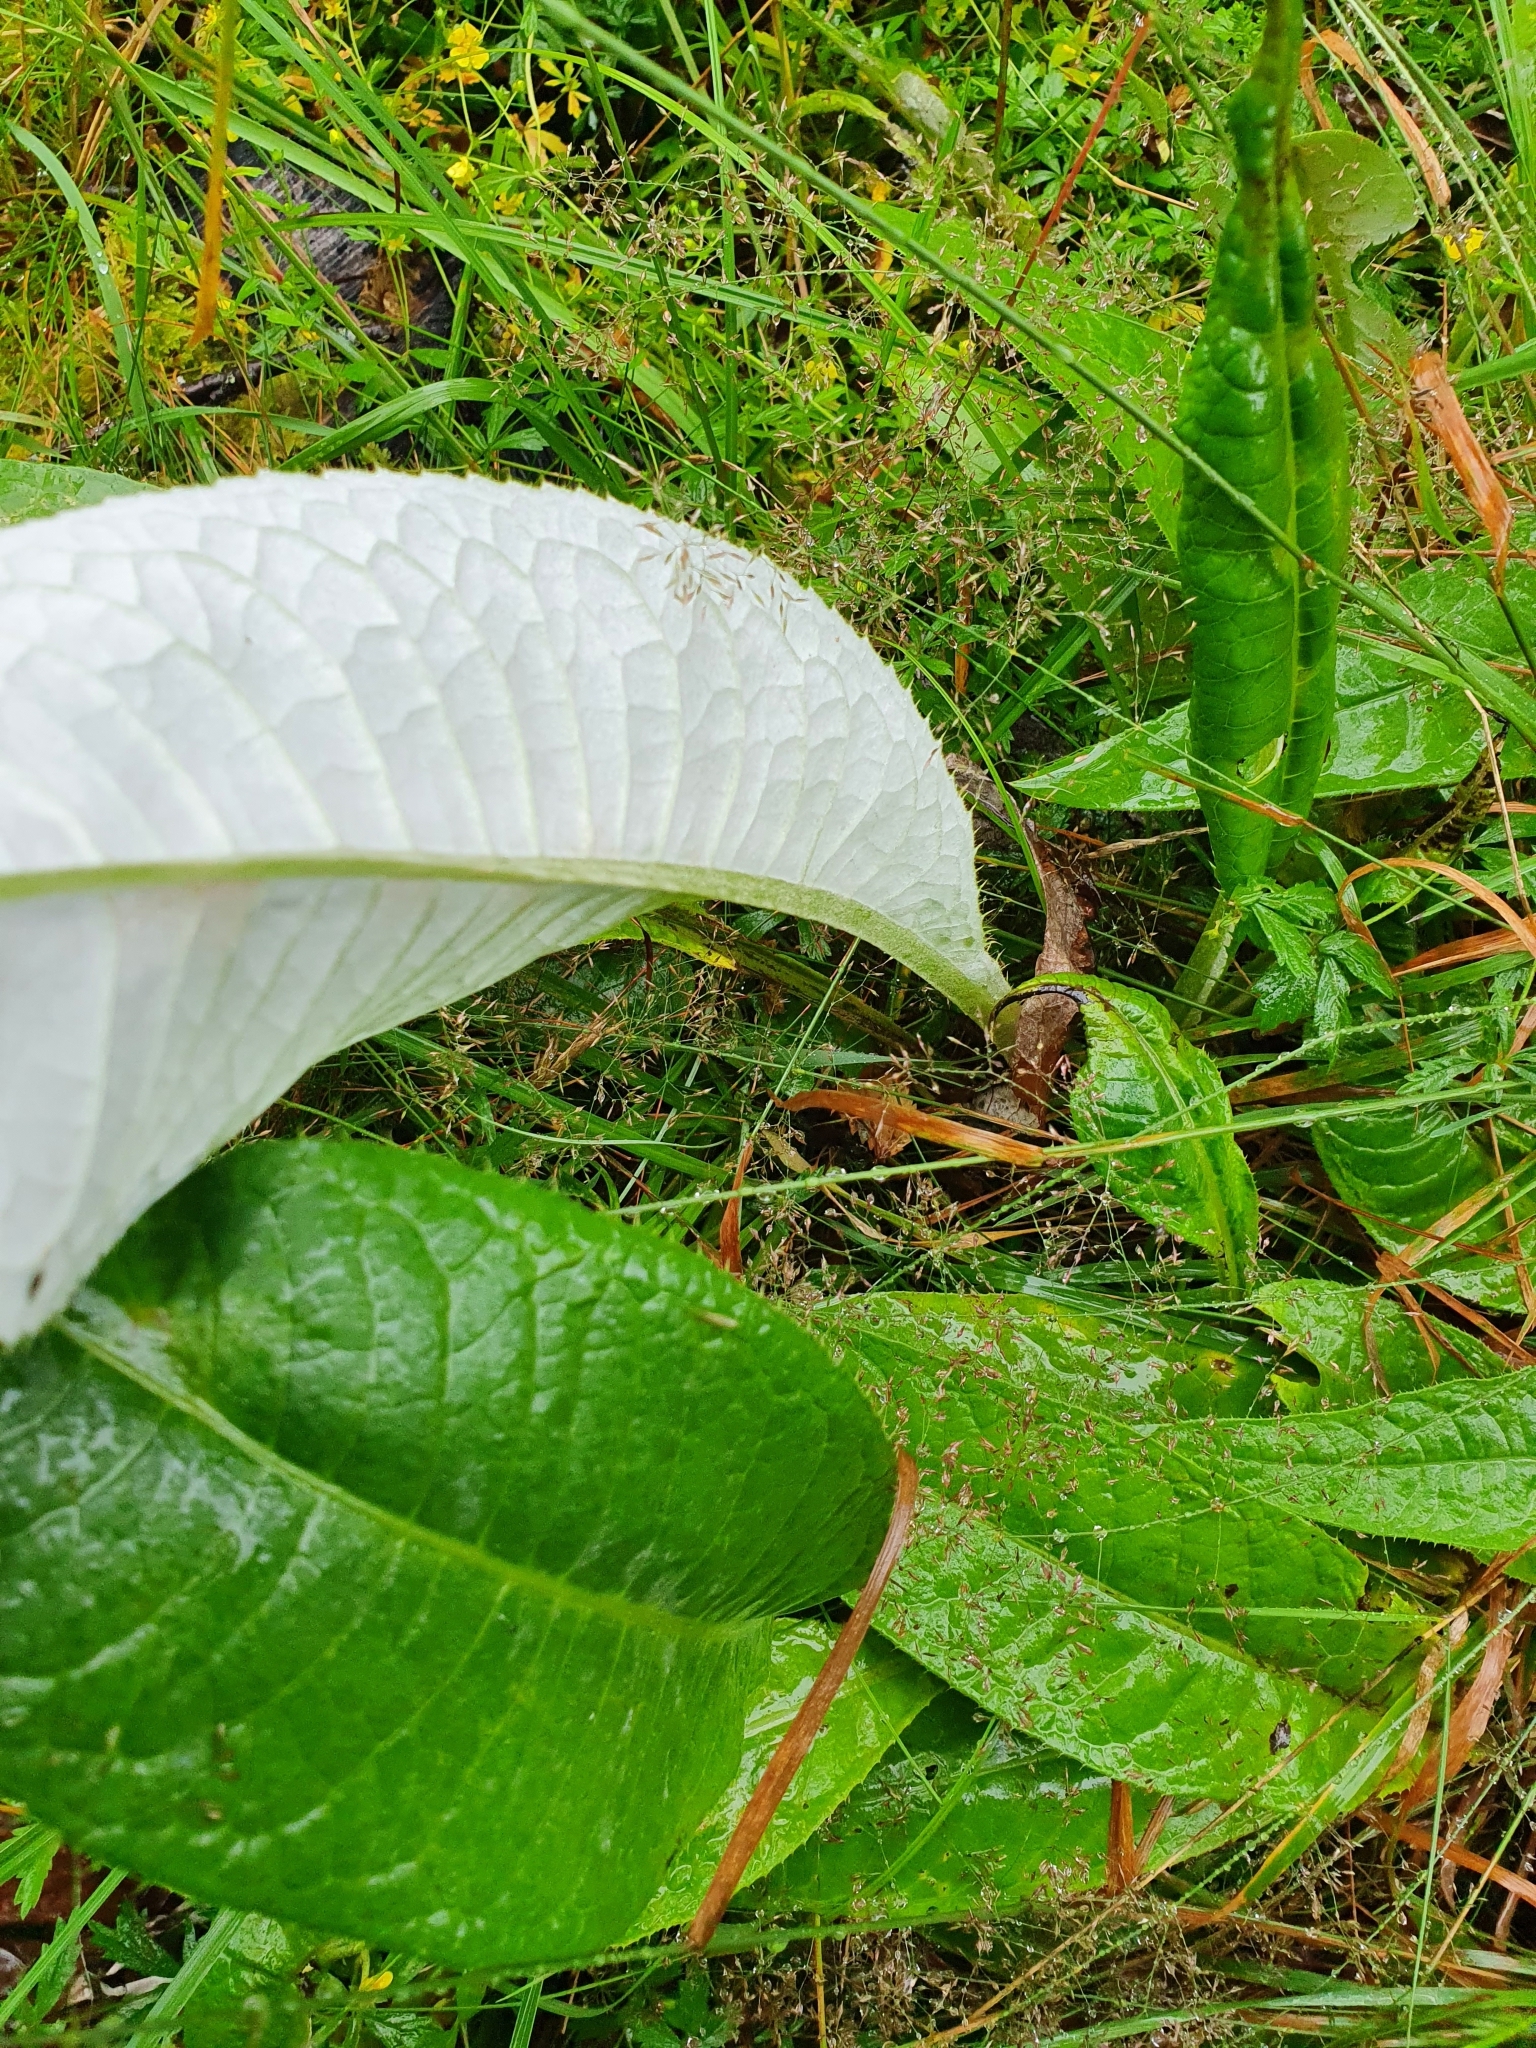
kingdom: Plantae
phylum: Tracheophyta
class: Magnoliopsida
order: Asterales
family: Asteraceae
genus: Cirsium
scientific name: Cirsium heterophyllum
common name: Melancholy thistle
